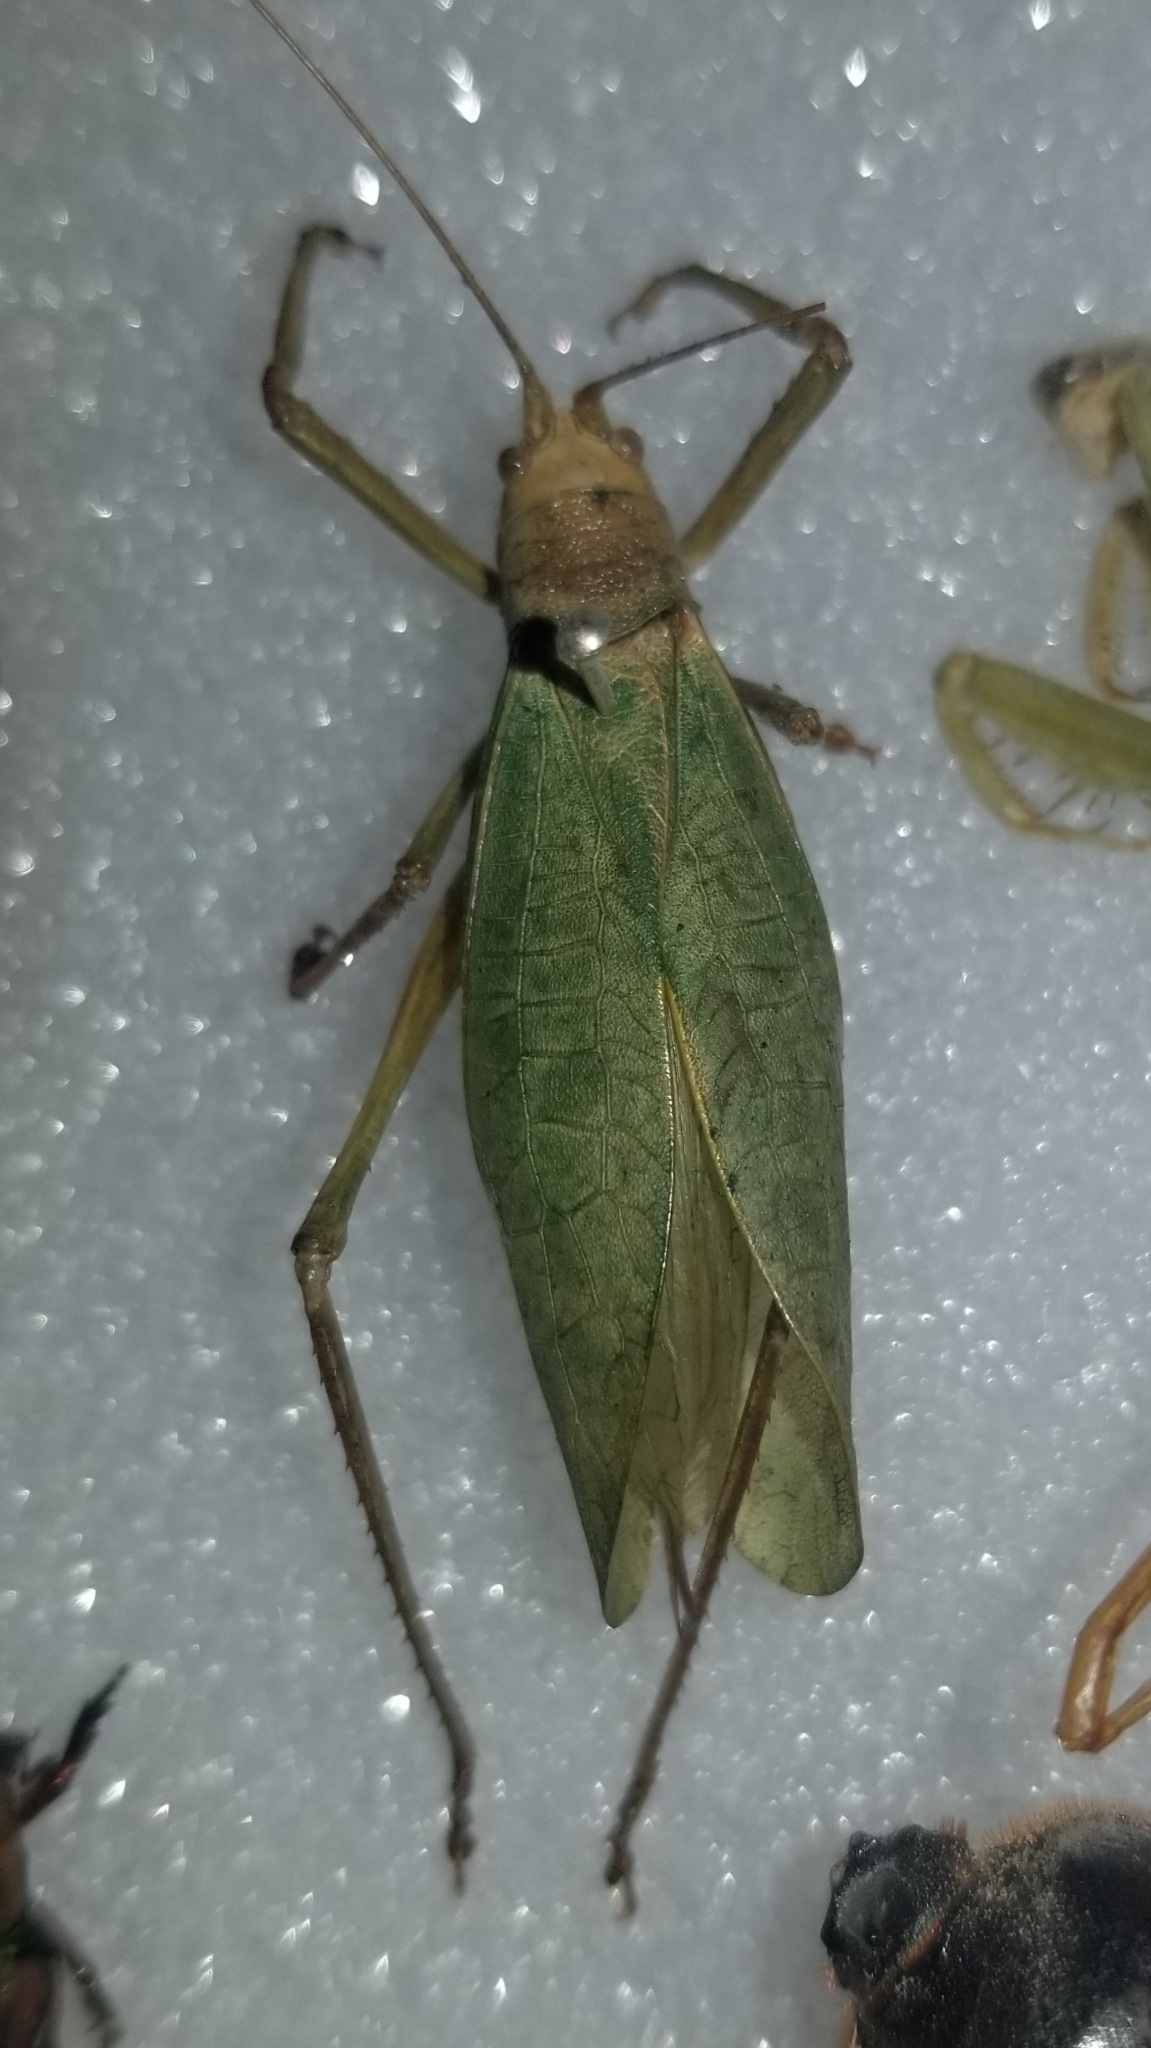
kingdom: Animalia
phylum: Arthropoda
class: Insecta
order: Orthoptera
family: Tettigoniidae
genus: Pterophylla
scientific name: Pterophylla camellifolia
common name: Common true katydid
